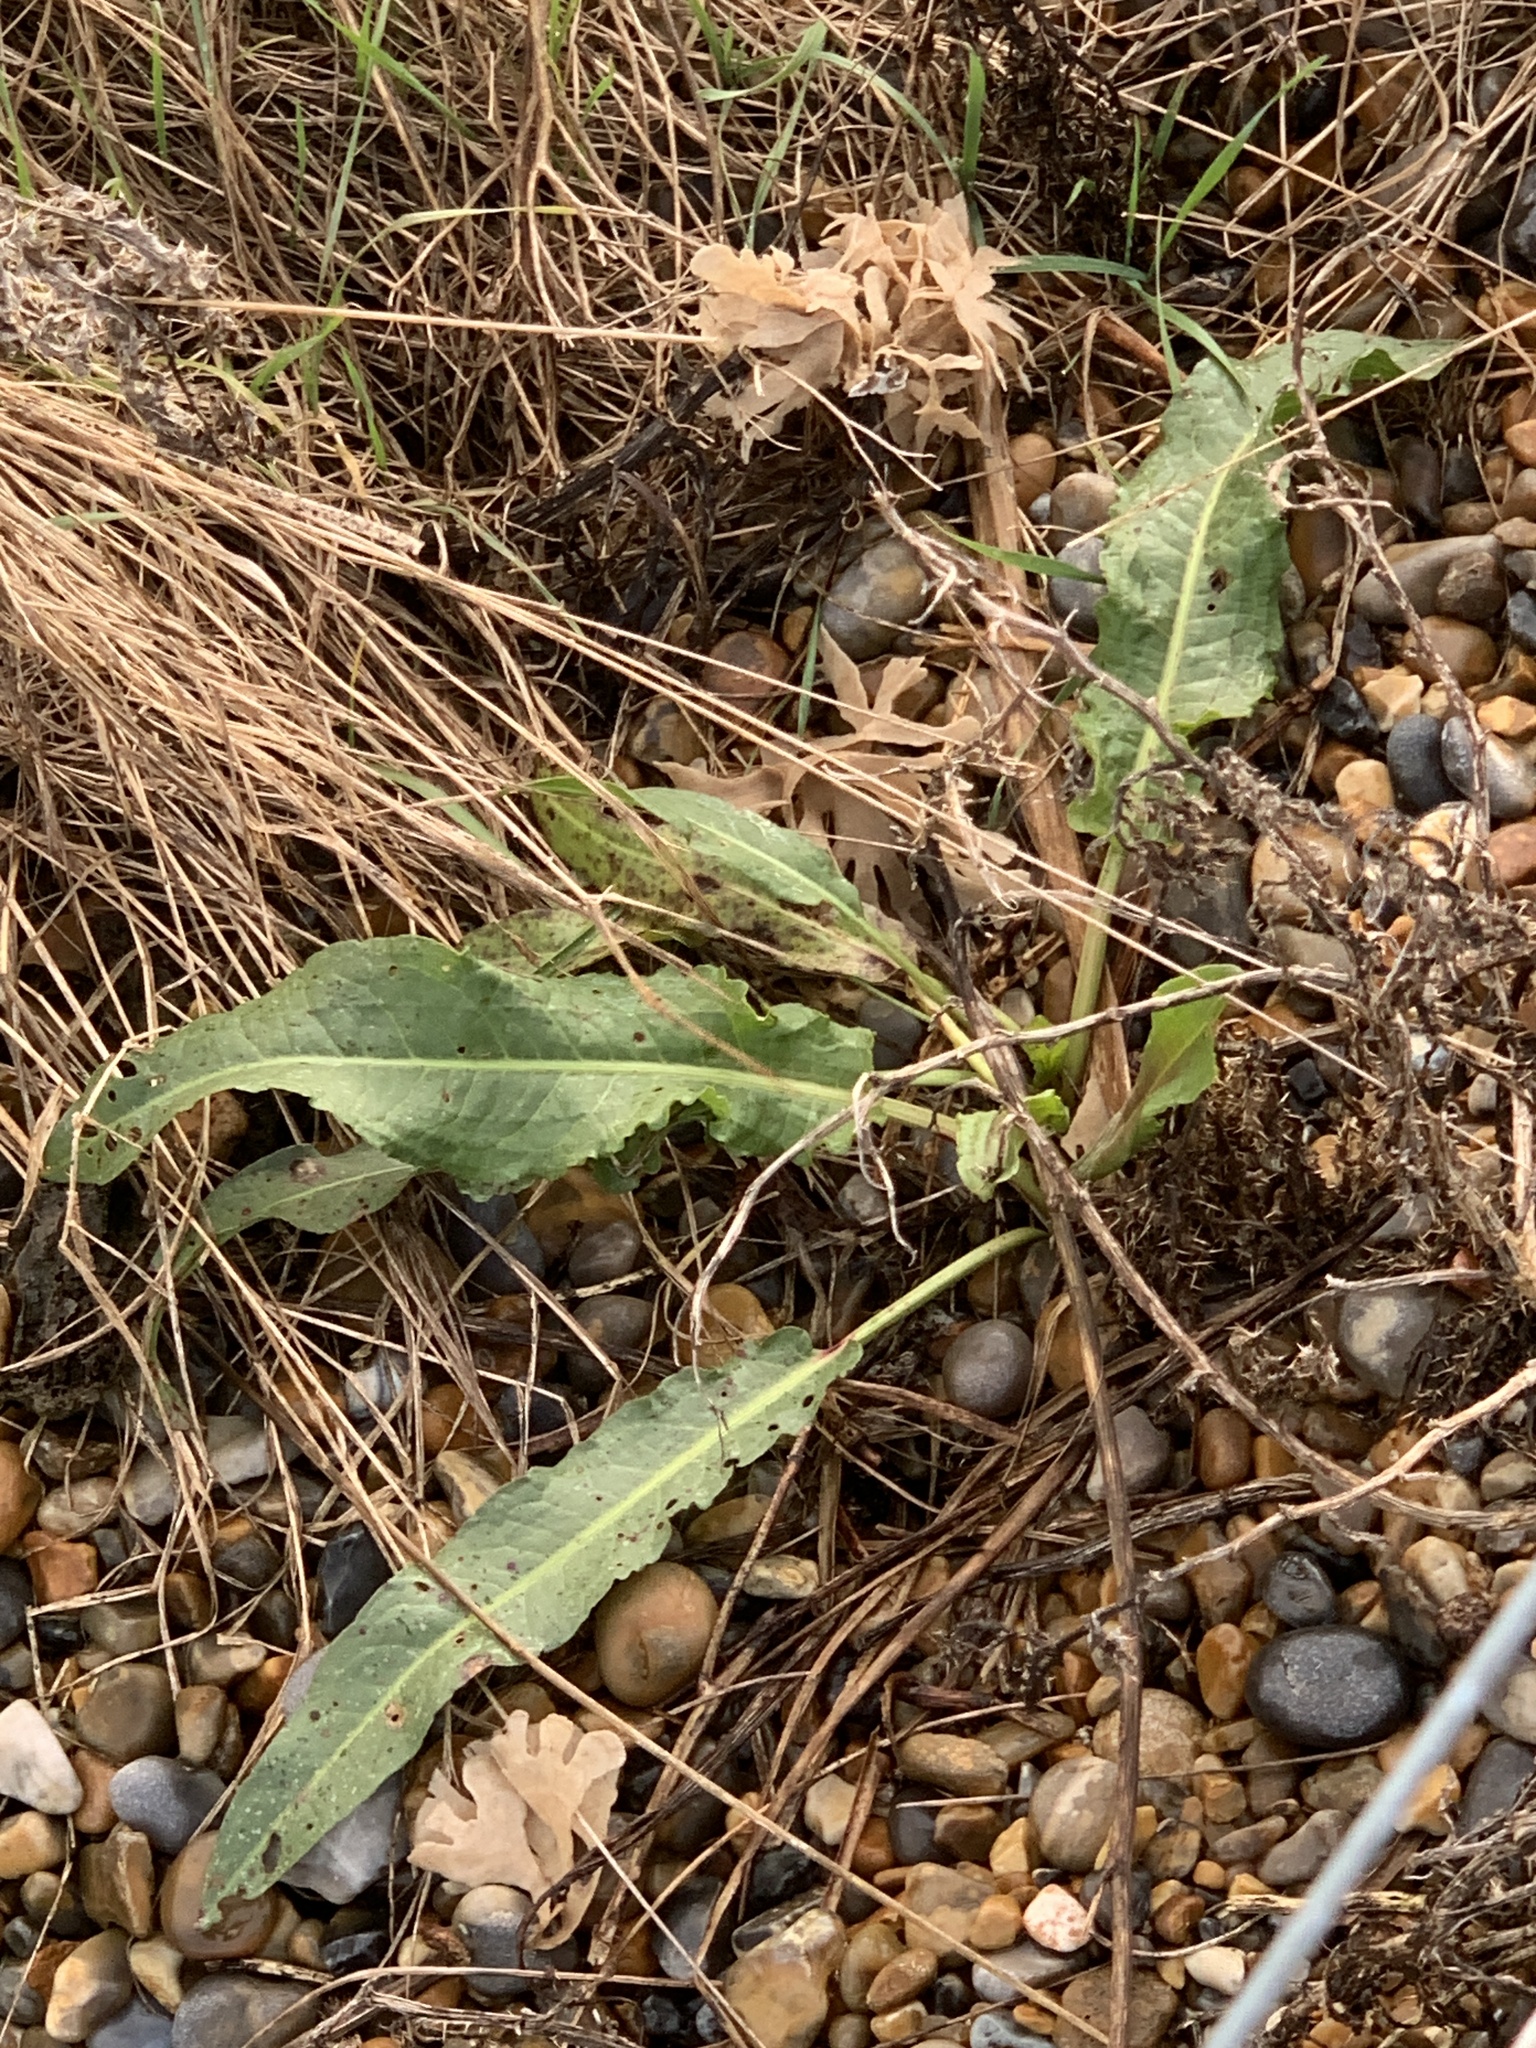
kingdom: Plantae
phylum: Tracheophyta
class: Magnoliopsida
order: Caryophyllales
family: Polygonaceae
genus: Rumex
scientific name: Rumex crispus
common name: Curled dock
